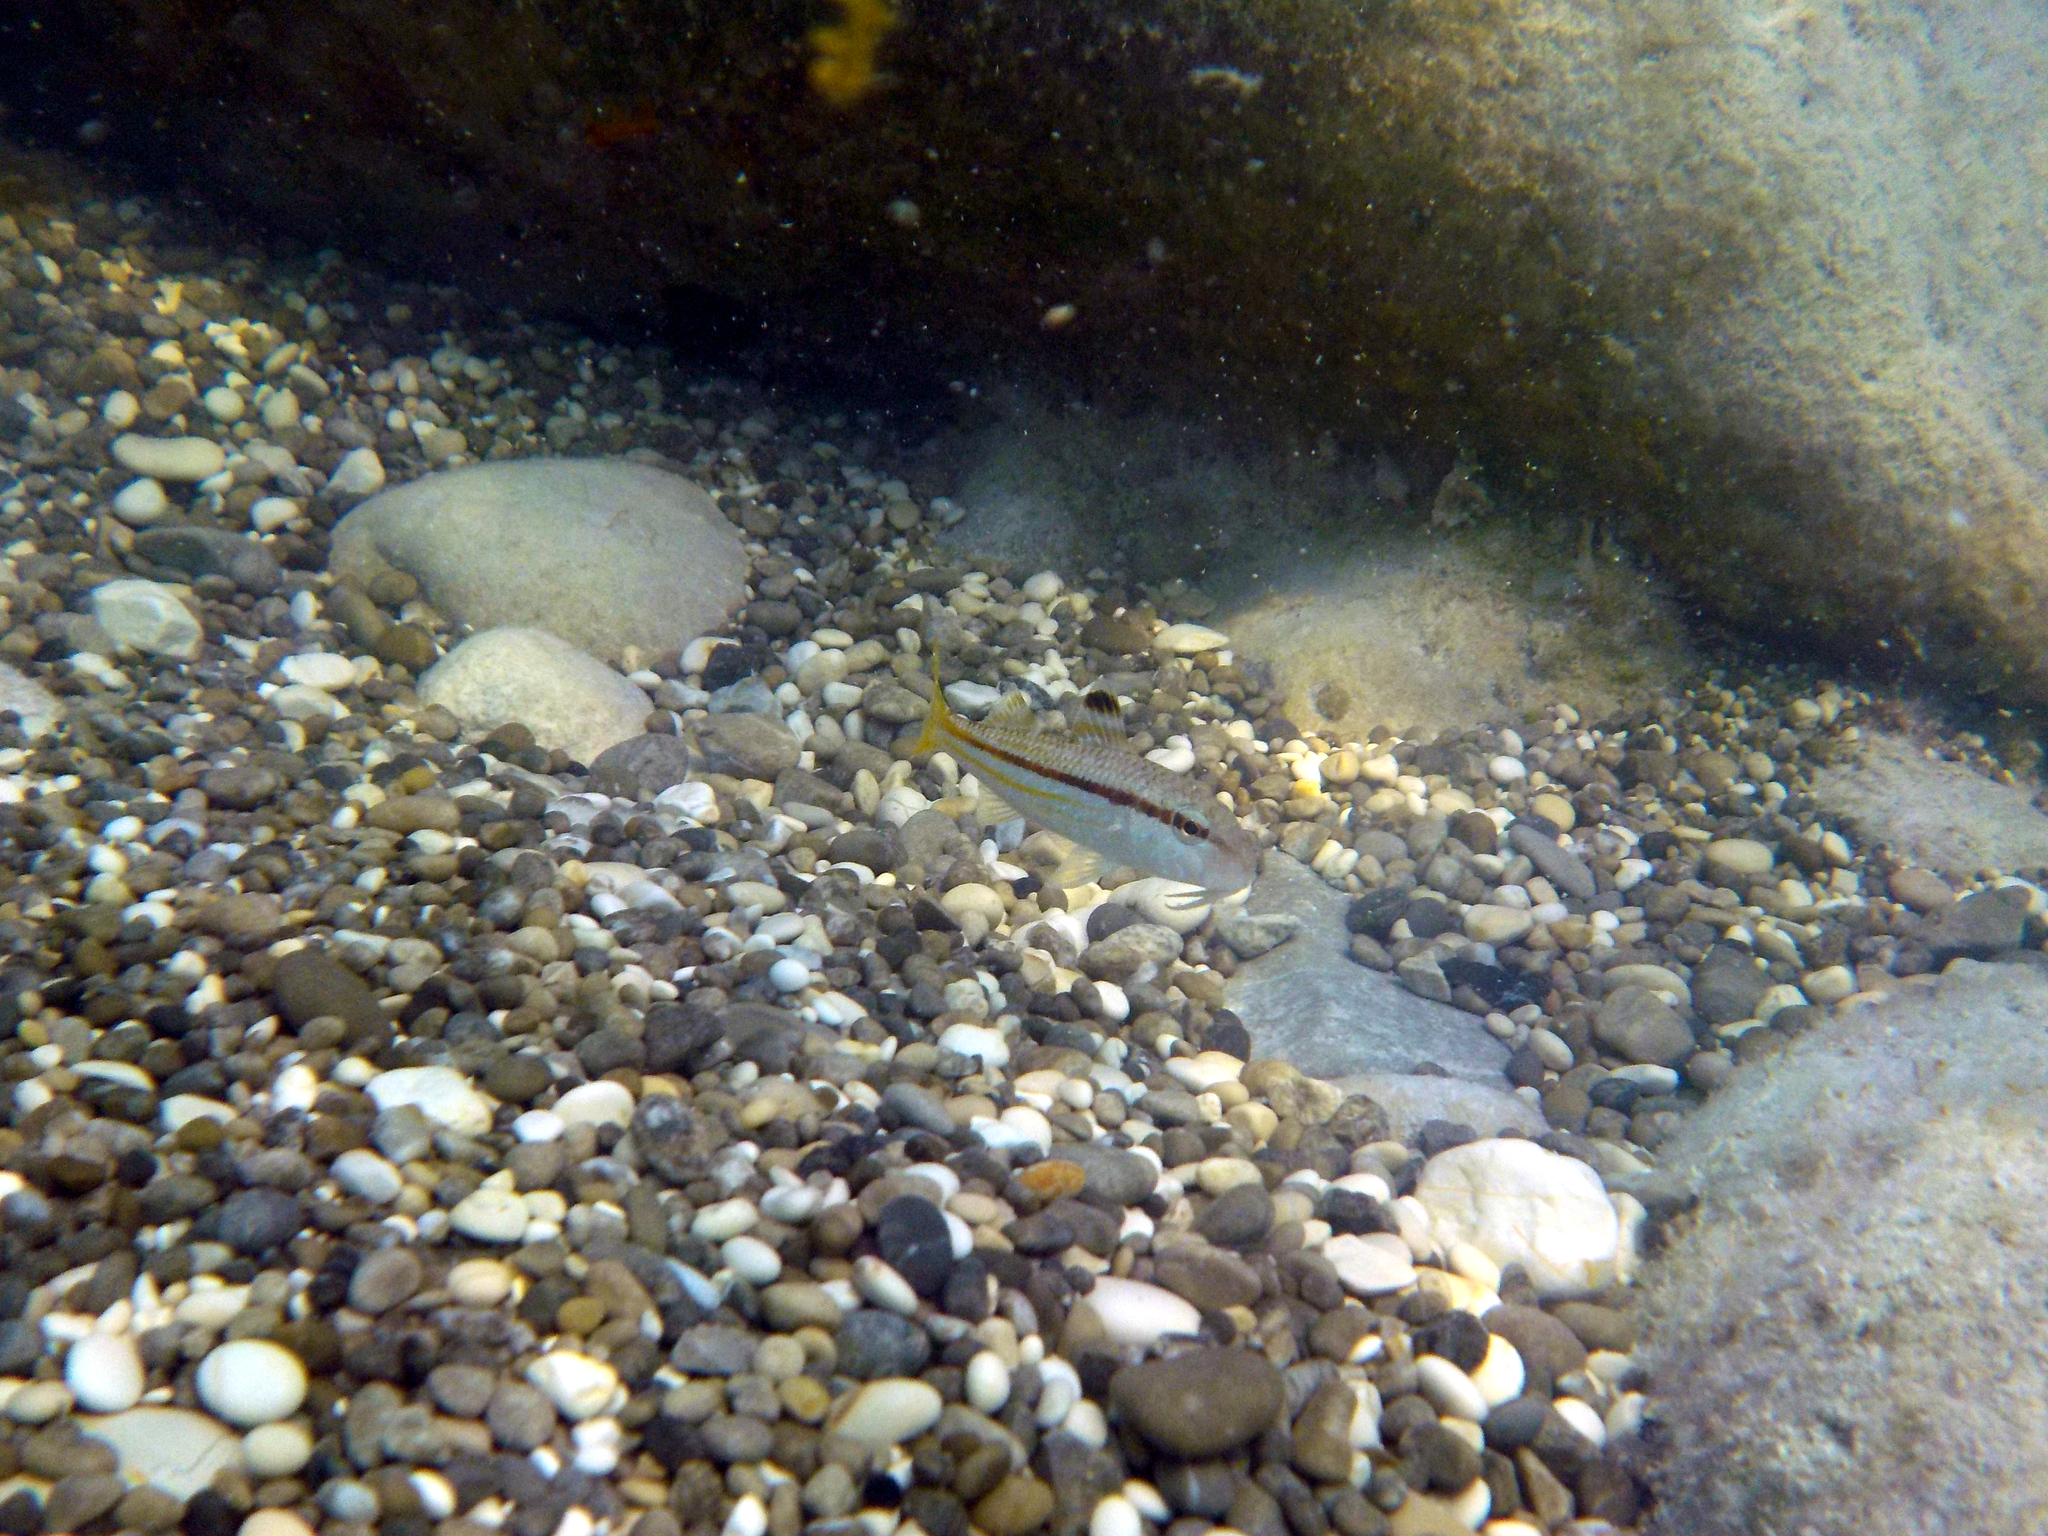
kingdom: Animalia
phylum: Chordata
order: Perciformes
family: Mullidae
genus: Mullus
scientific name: Mullus surmuletus
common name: Red mullet
